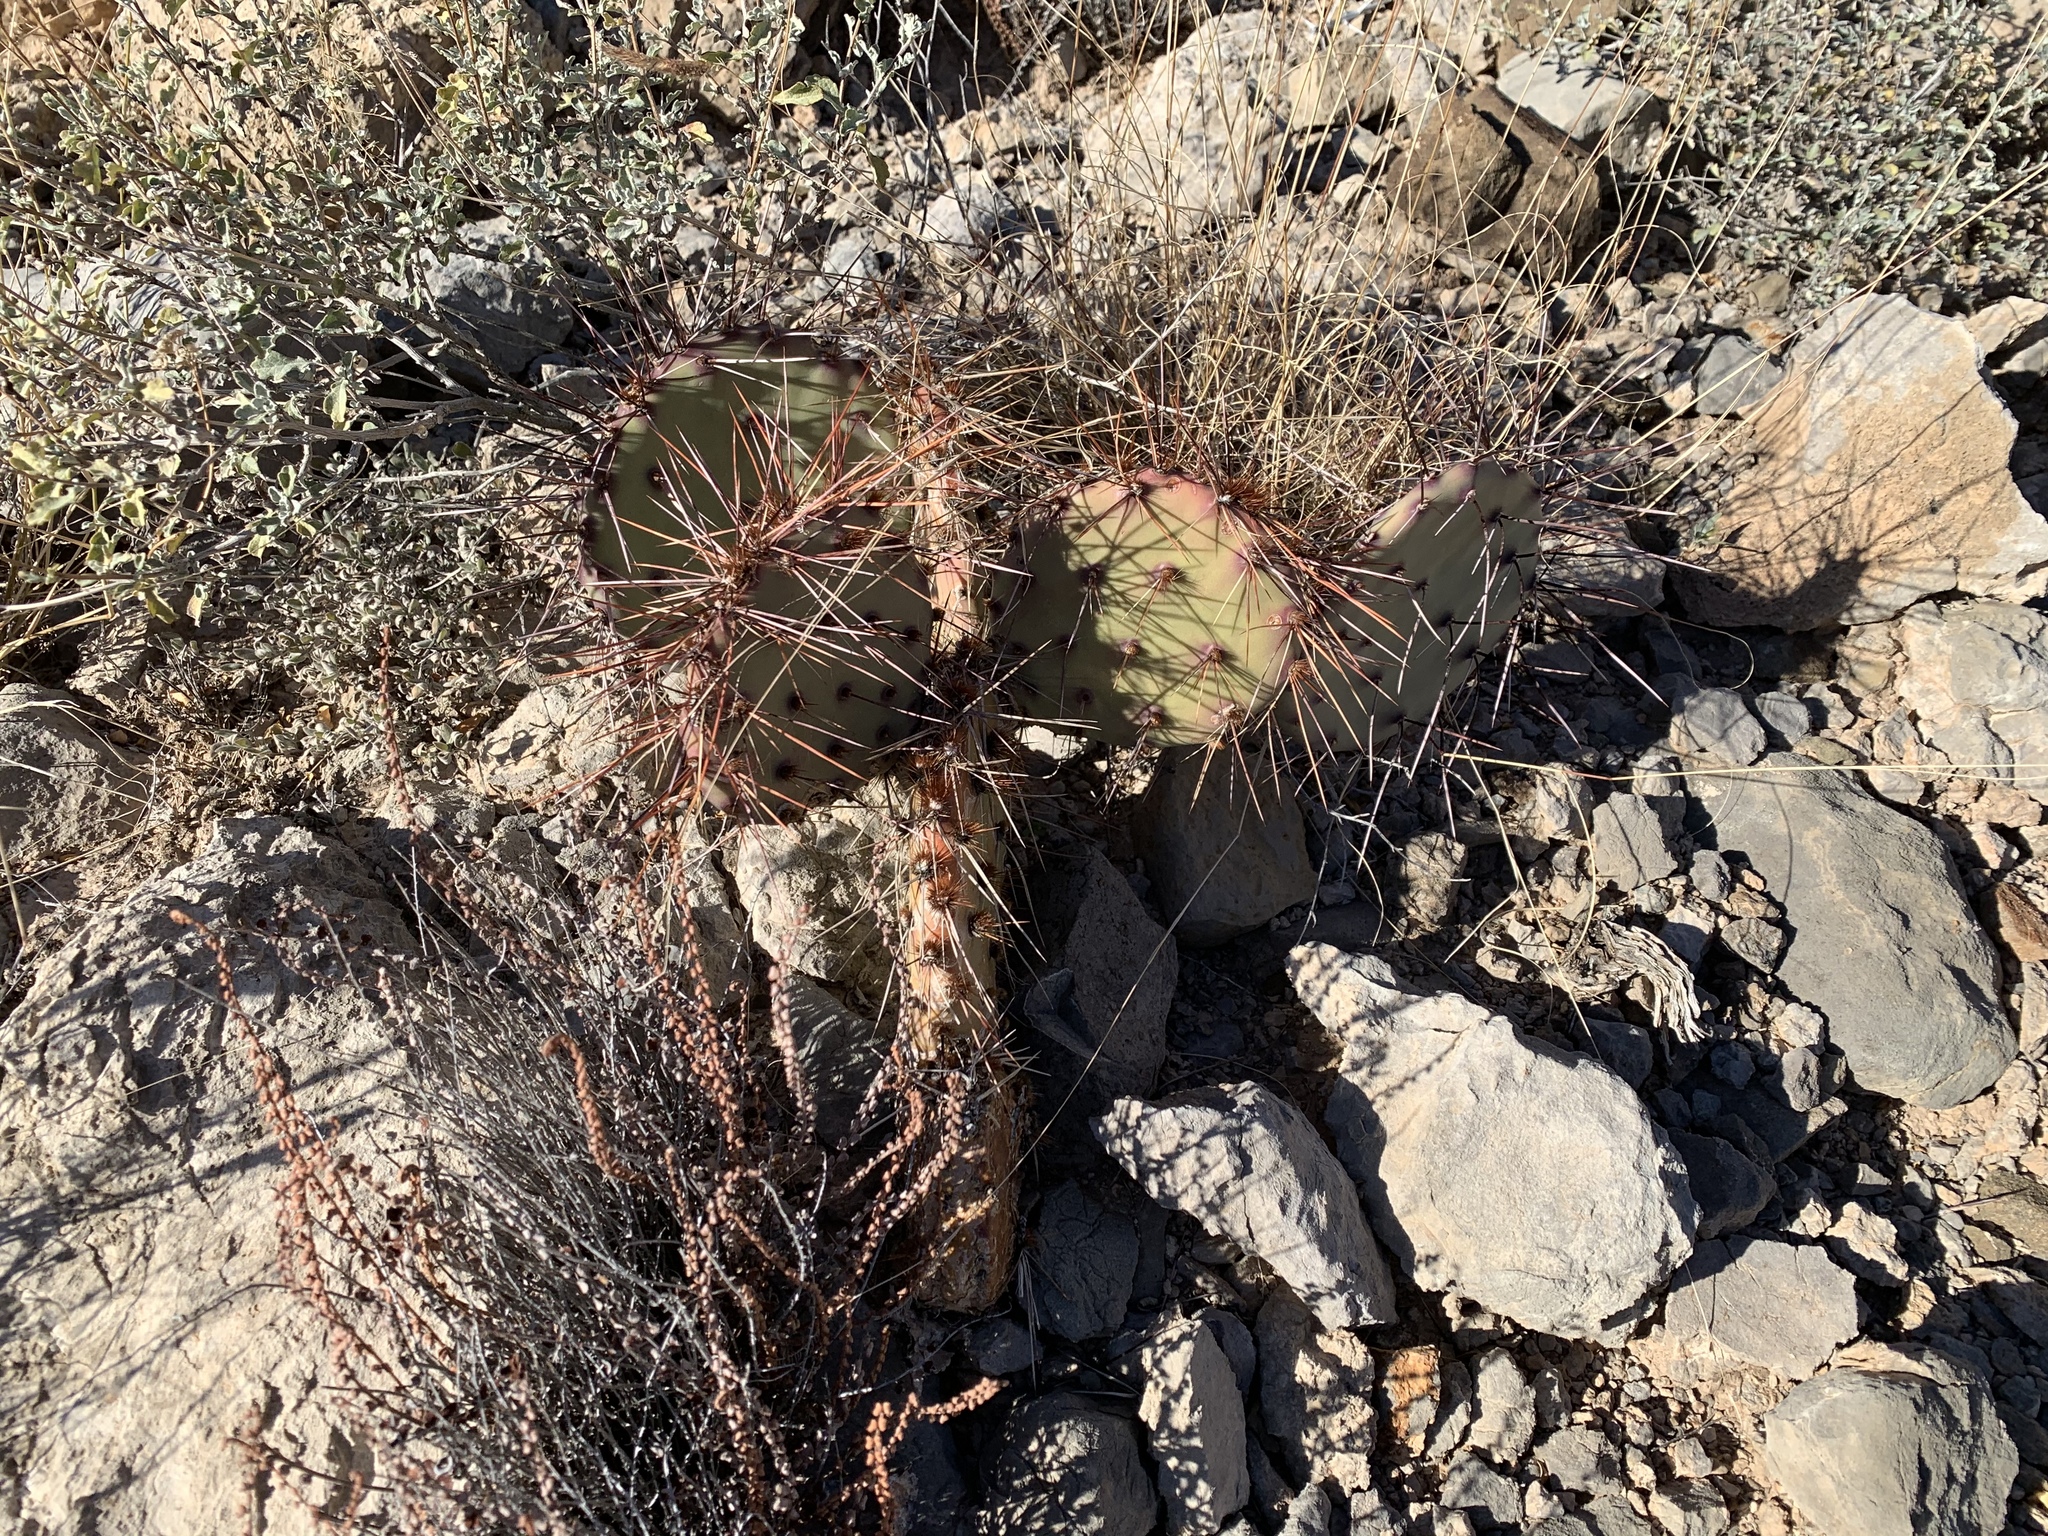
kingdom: Plantae
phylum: Tracheophyta
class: Magnoliopsida
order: Caryophyllales
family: Cactaceae
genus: Opuntia
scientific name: Opuntia macrocentra
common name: Purple prickly-pear
